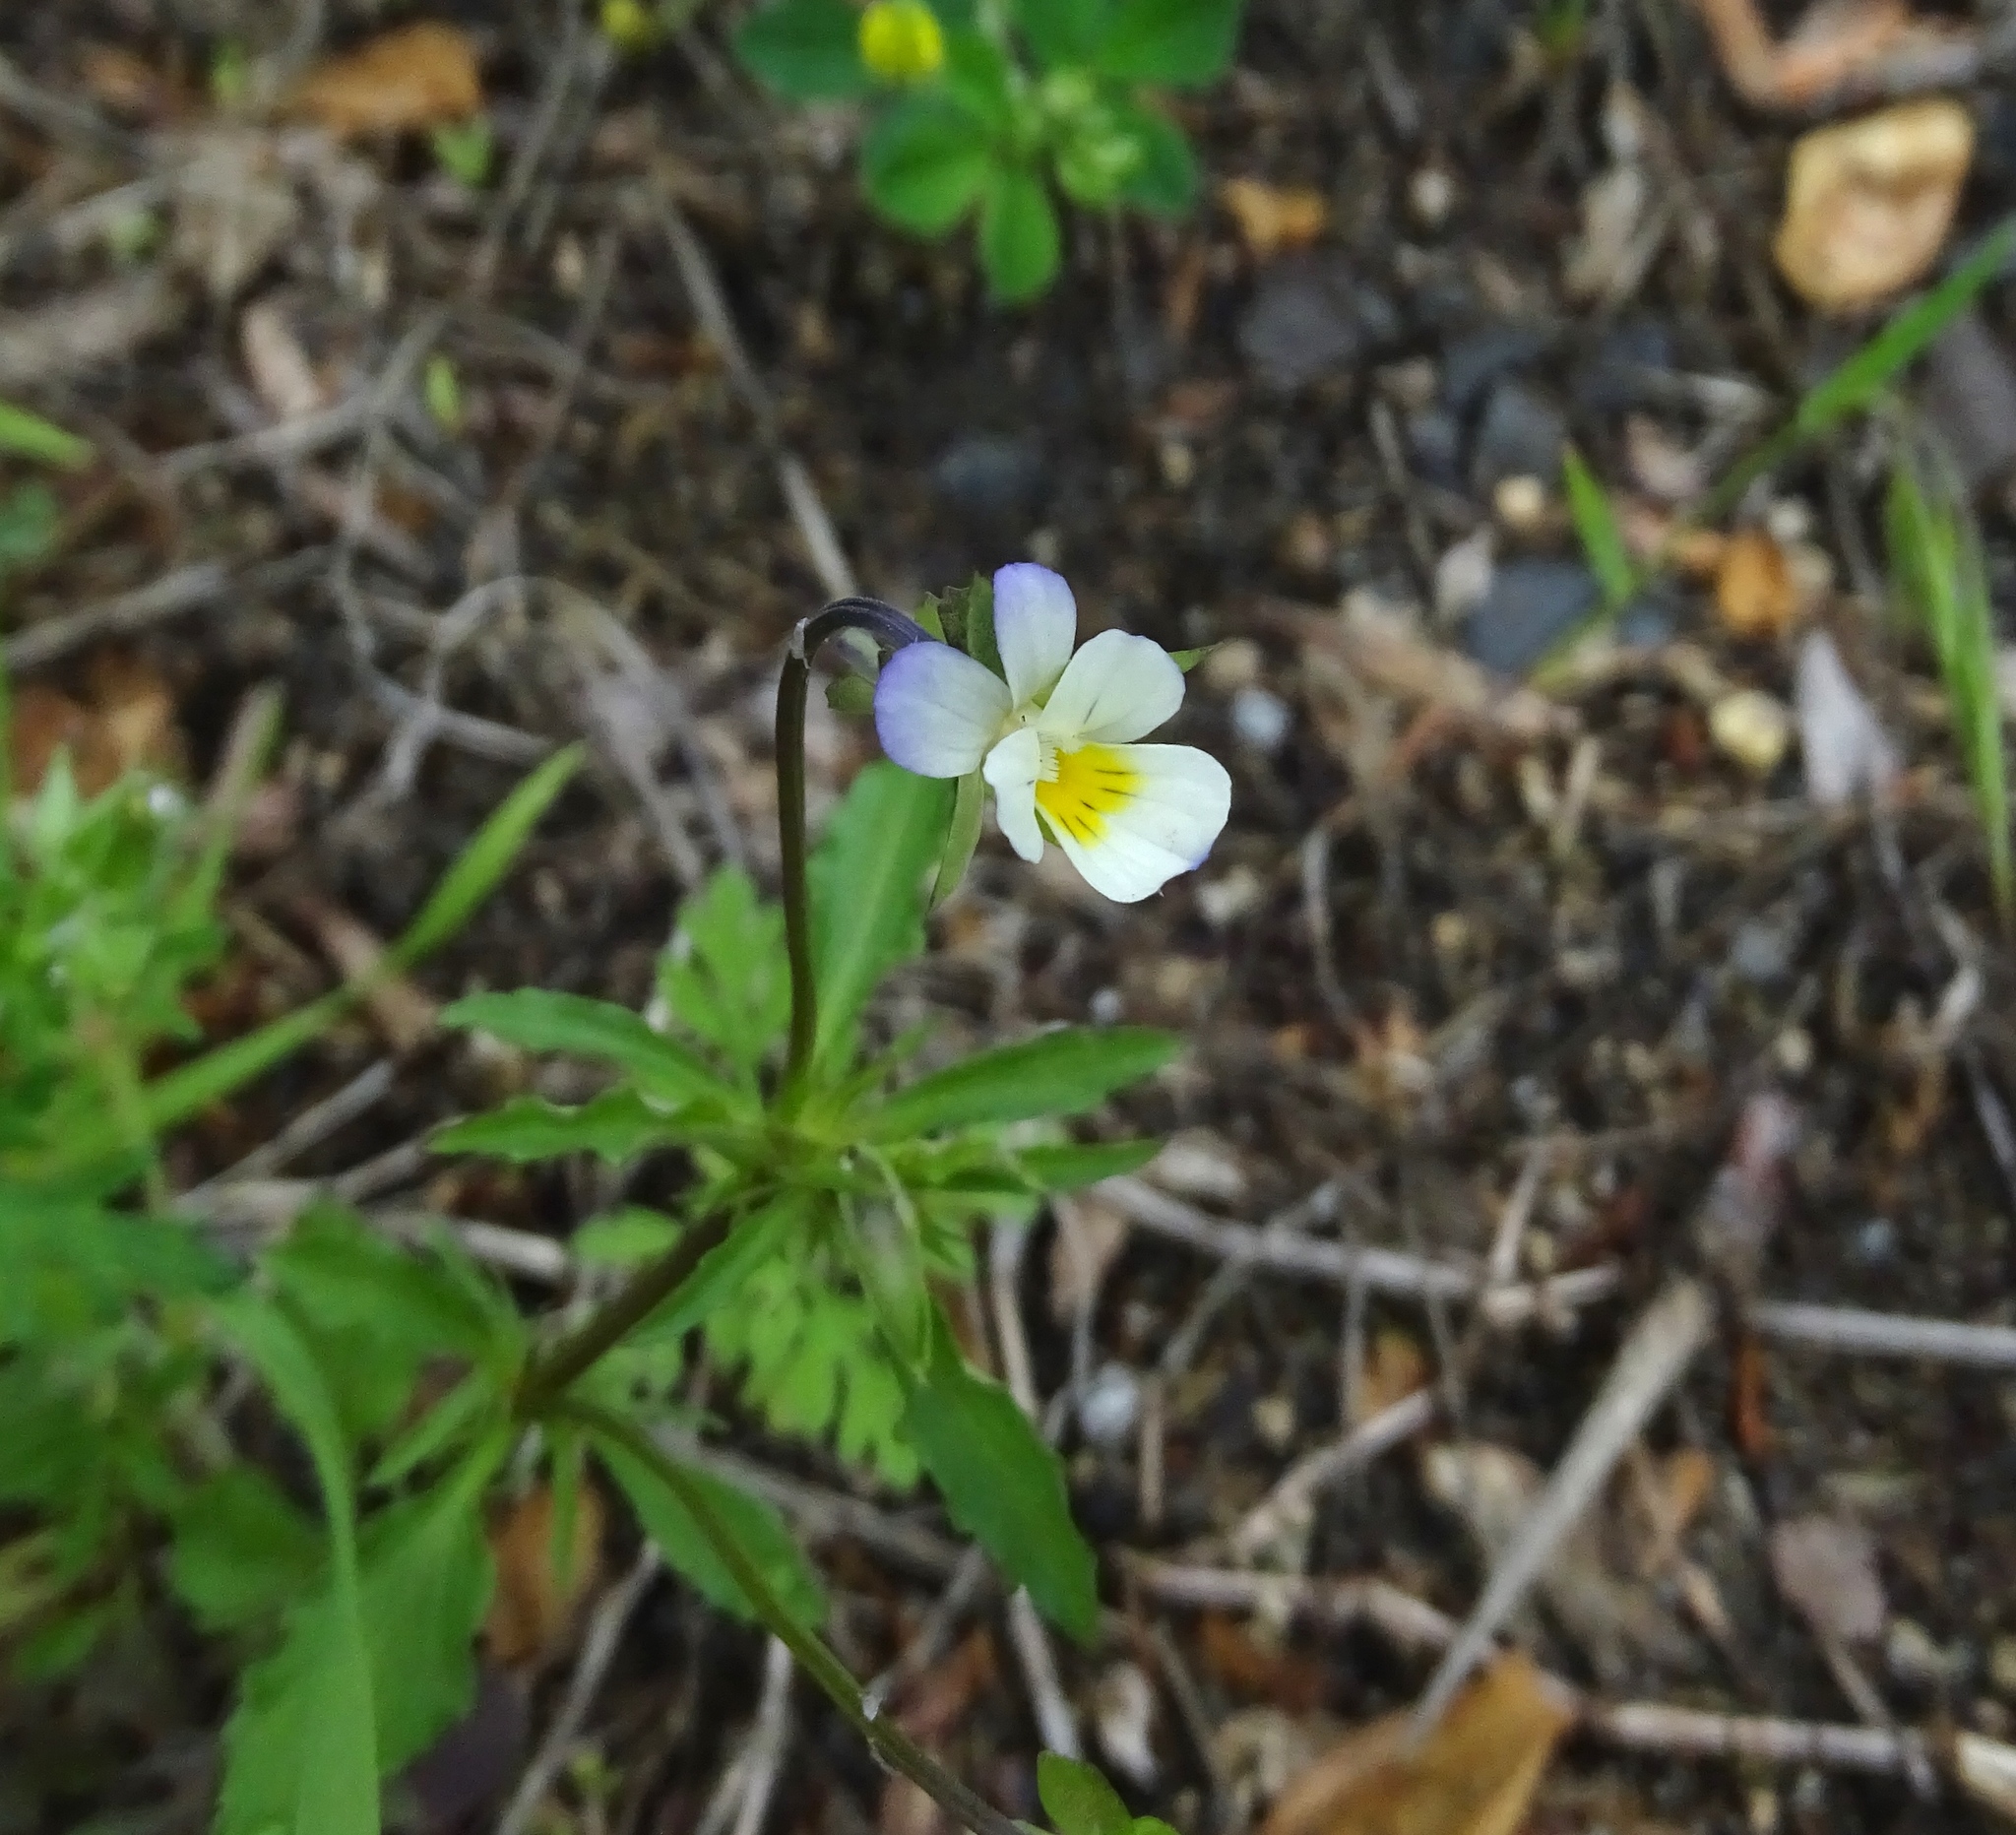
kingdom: Plantae
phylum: Tracheophyta
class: Magnoliopsida
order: Malpighiales
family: Violaceae
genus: Viola
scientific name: Viola arvensis
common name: Field pansy
